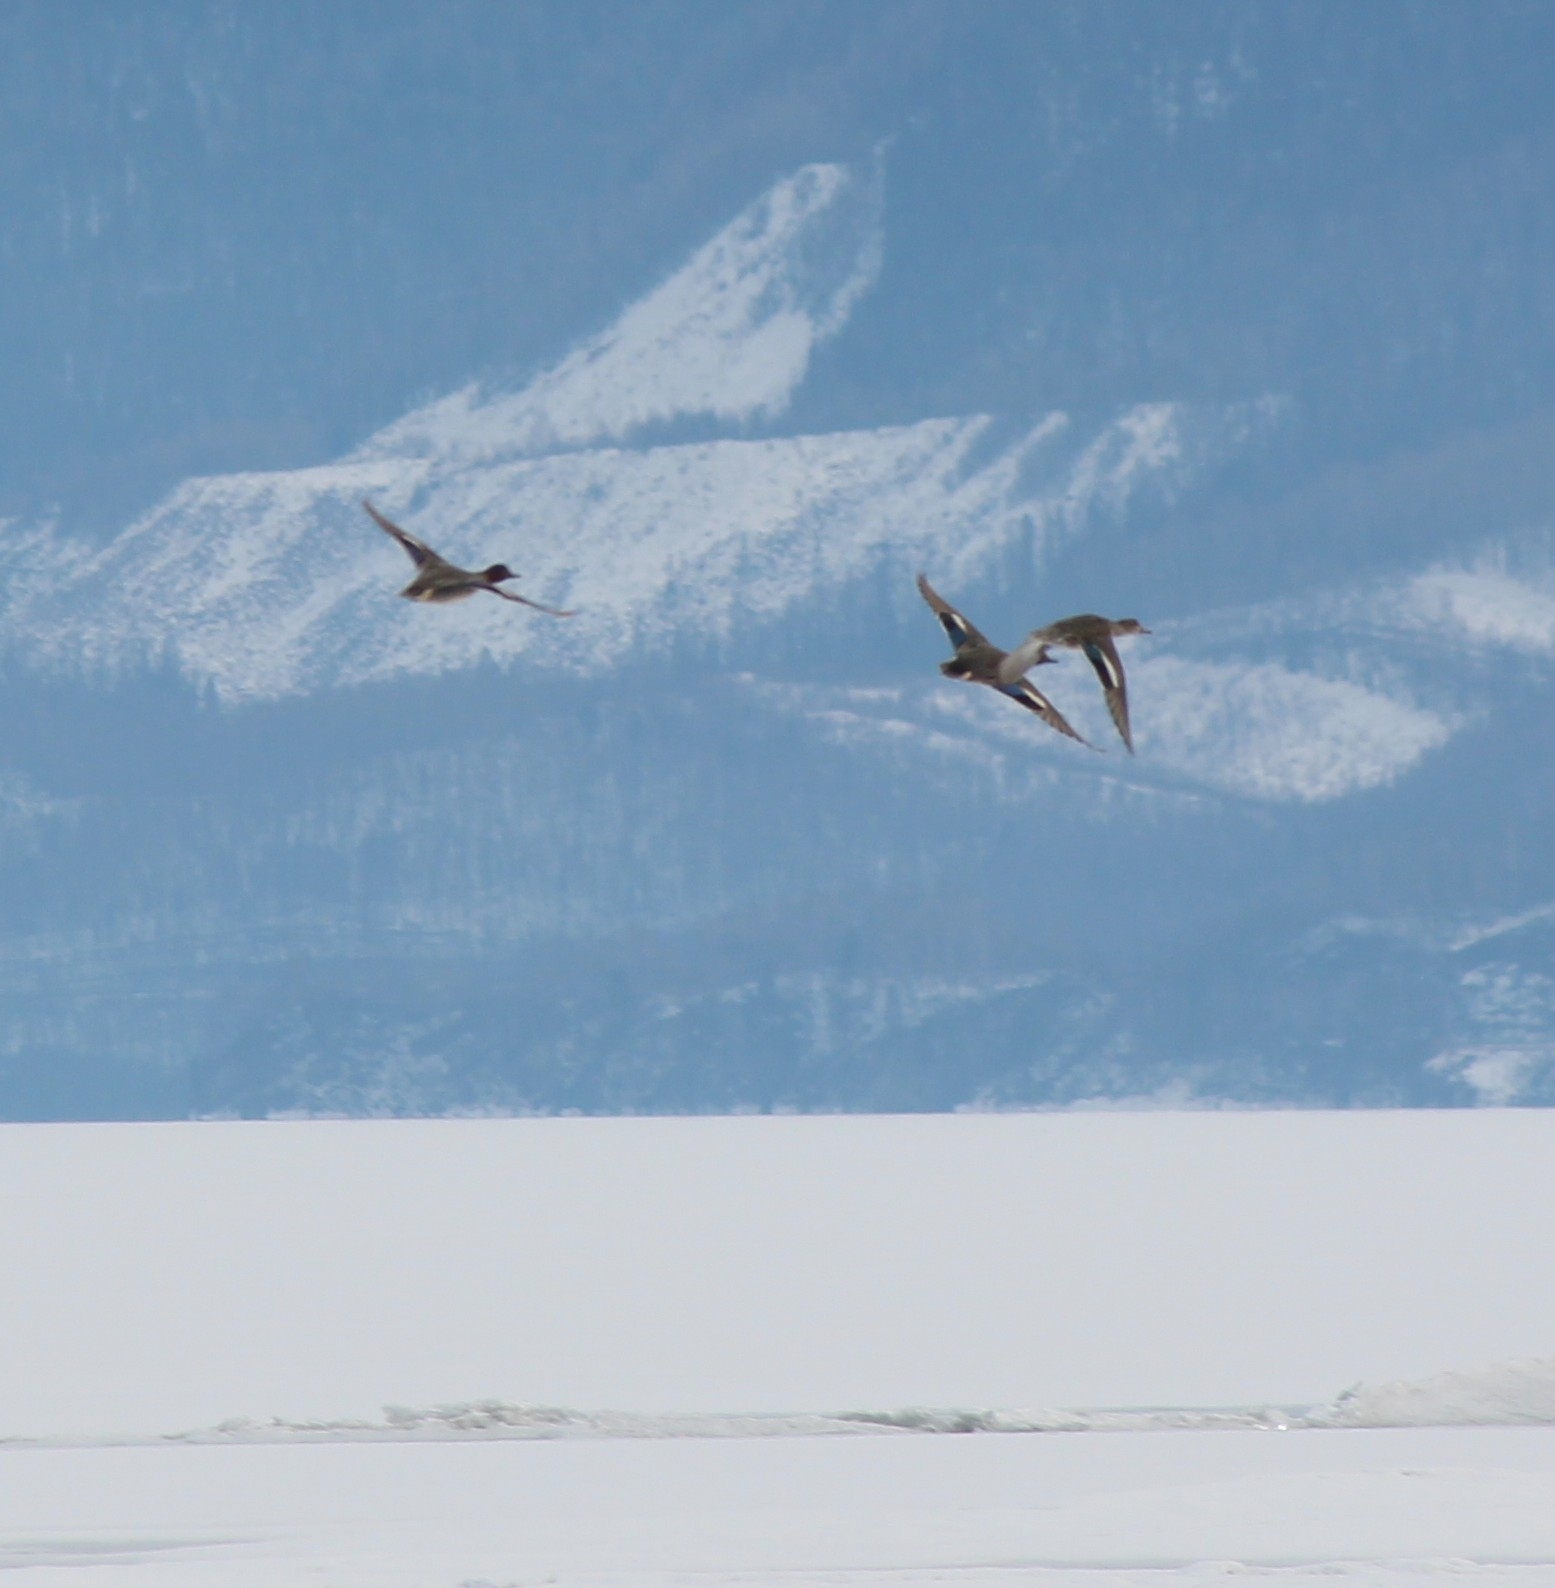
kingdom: Animalia
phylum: Chordata
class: Aves
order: Anseriformes
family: Anatidae
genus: Anas
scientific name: Anas crecca
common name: Eurasian teal
